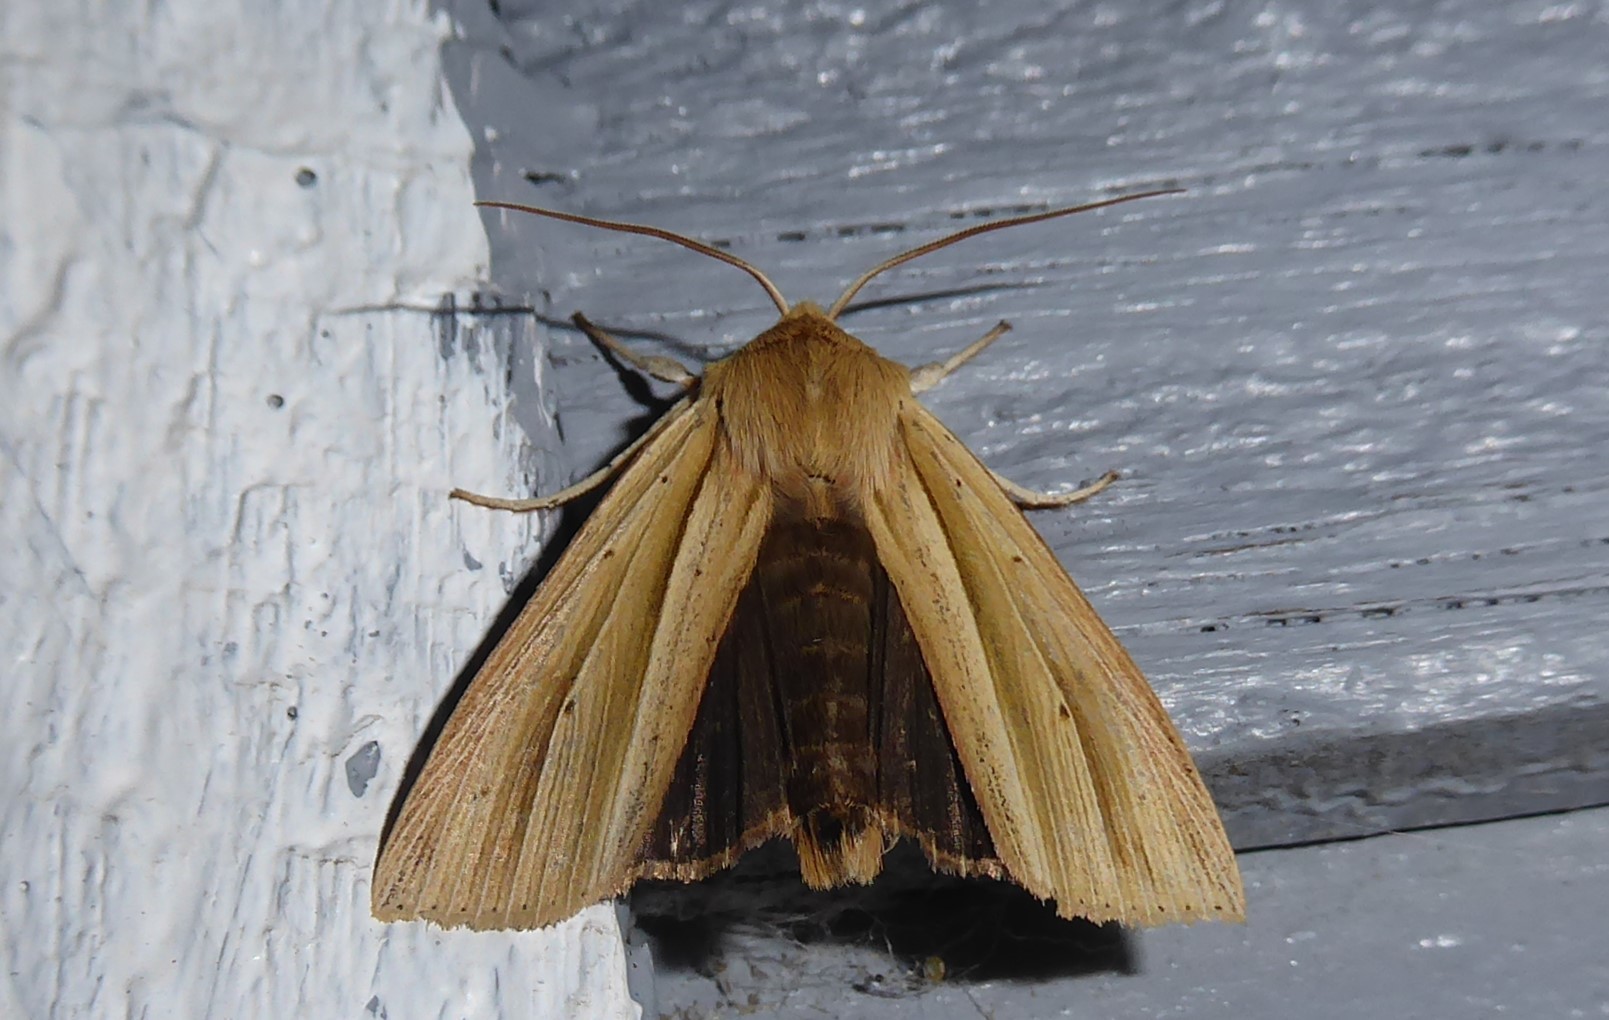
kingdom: Animalia
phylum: Arthropoda
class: Insecta
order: Lepidoptera
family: Noctuidae
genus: Ichneutica
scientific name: Ichneutica sulcana
